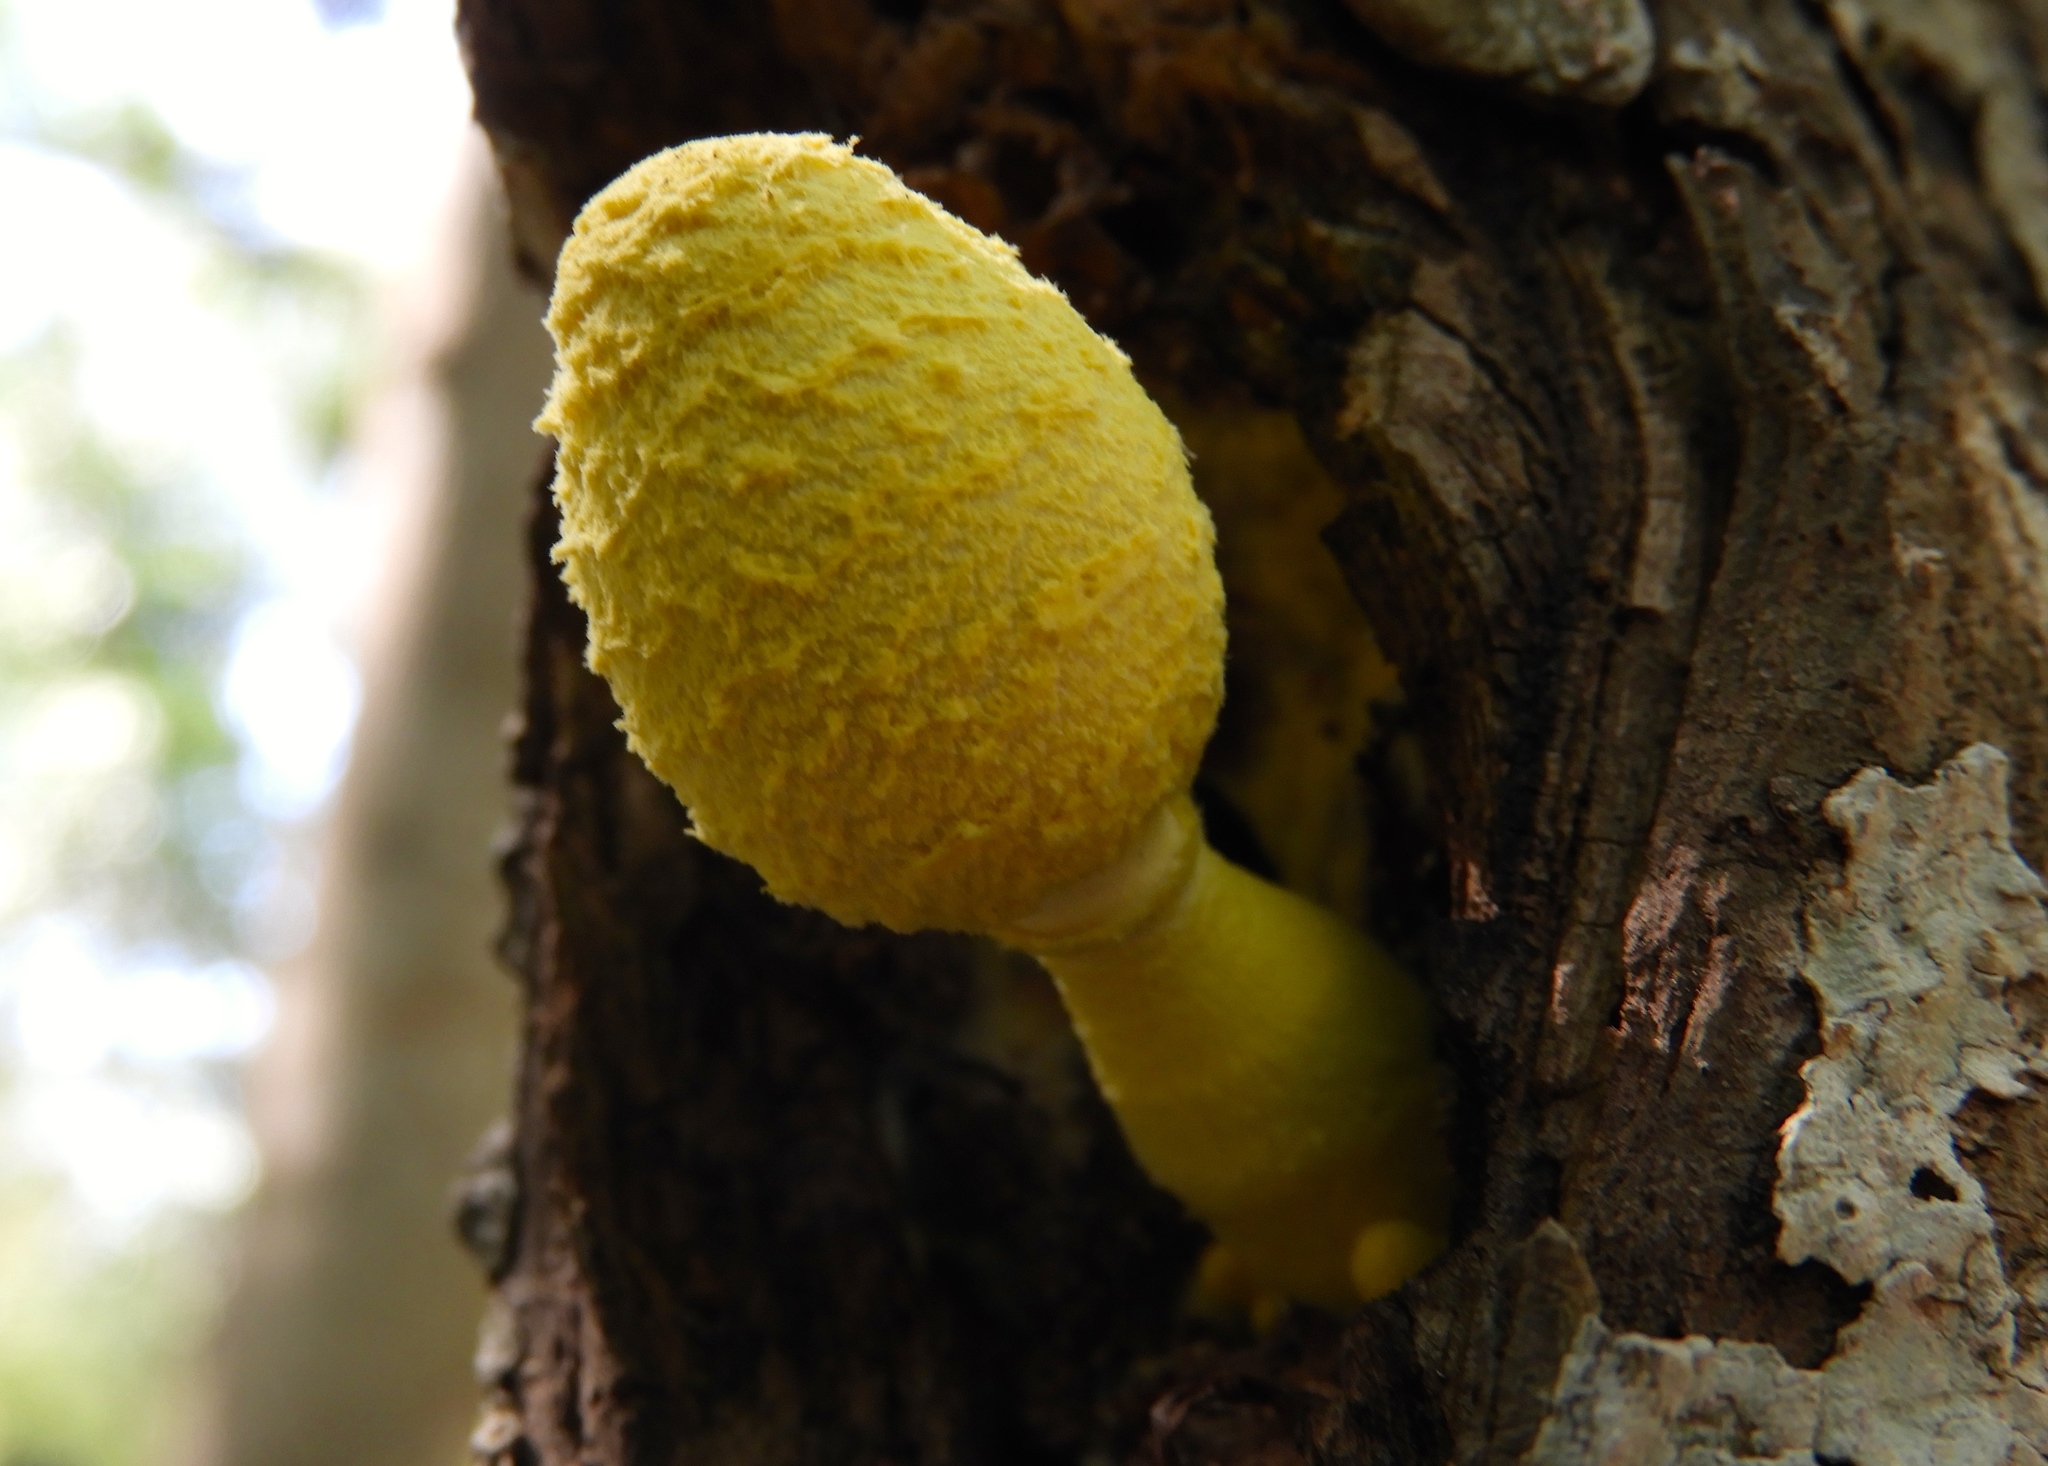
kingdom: Fungi
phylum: Basidiomycota
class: Agaricomycetes
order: Agaricales
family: Agaricaceae
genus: Leucocoprinus
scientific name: Leucocoprinus birnbaumii
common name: Plantpot dapperling
